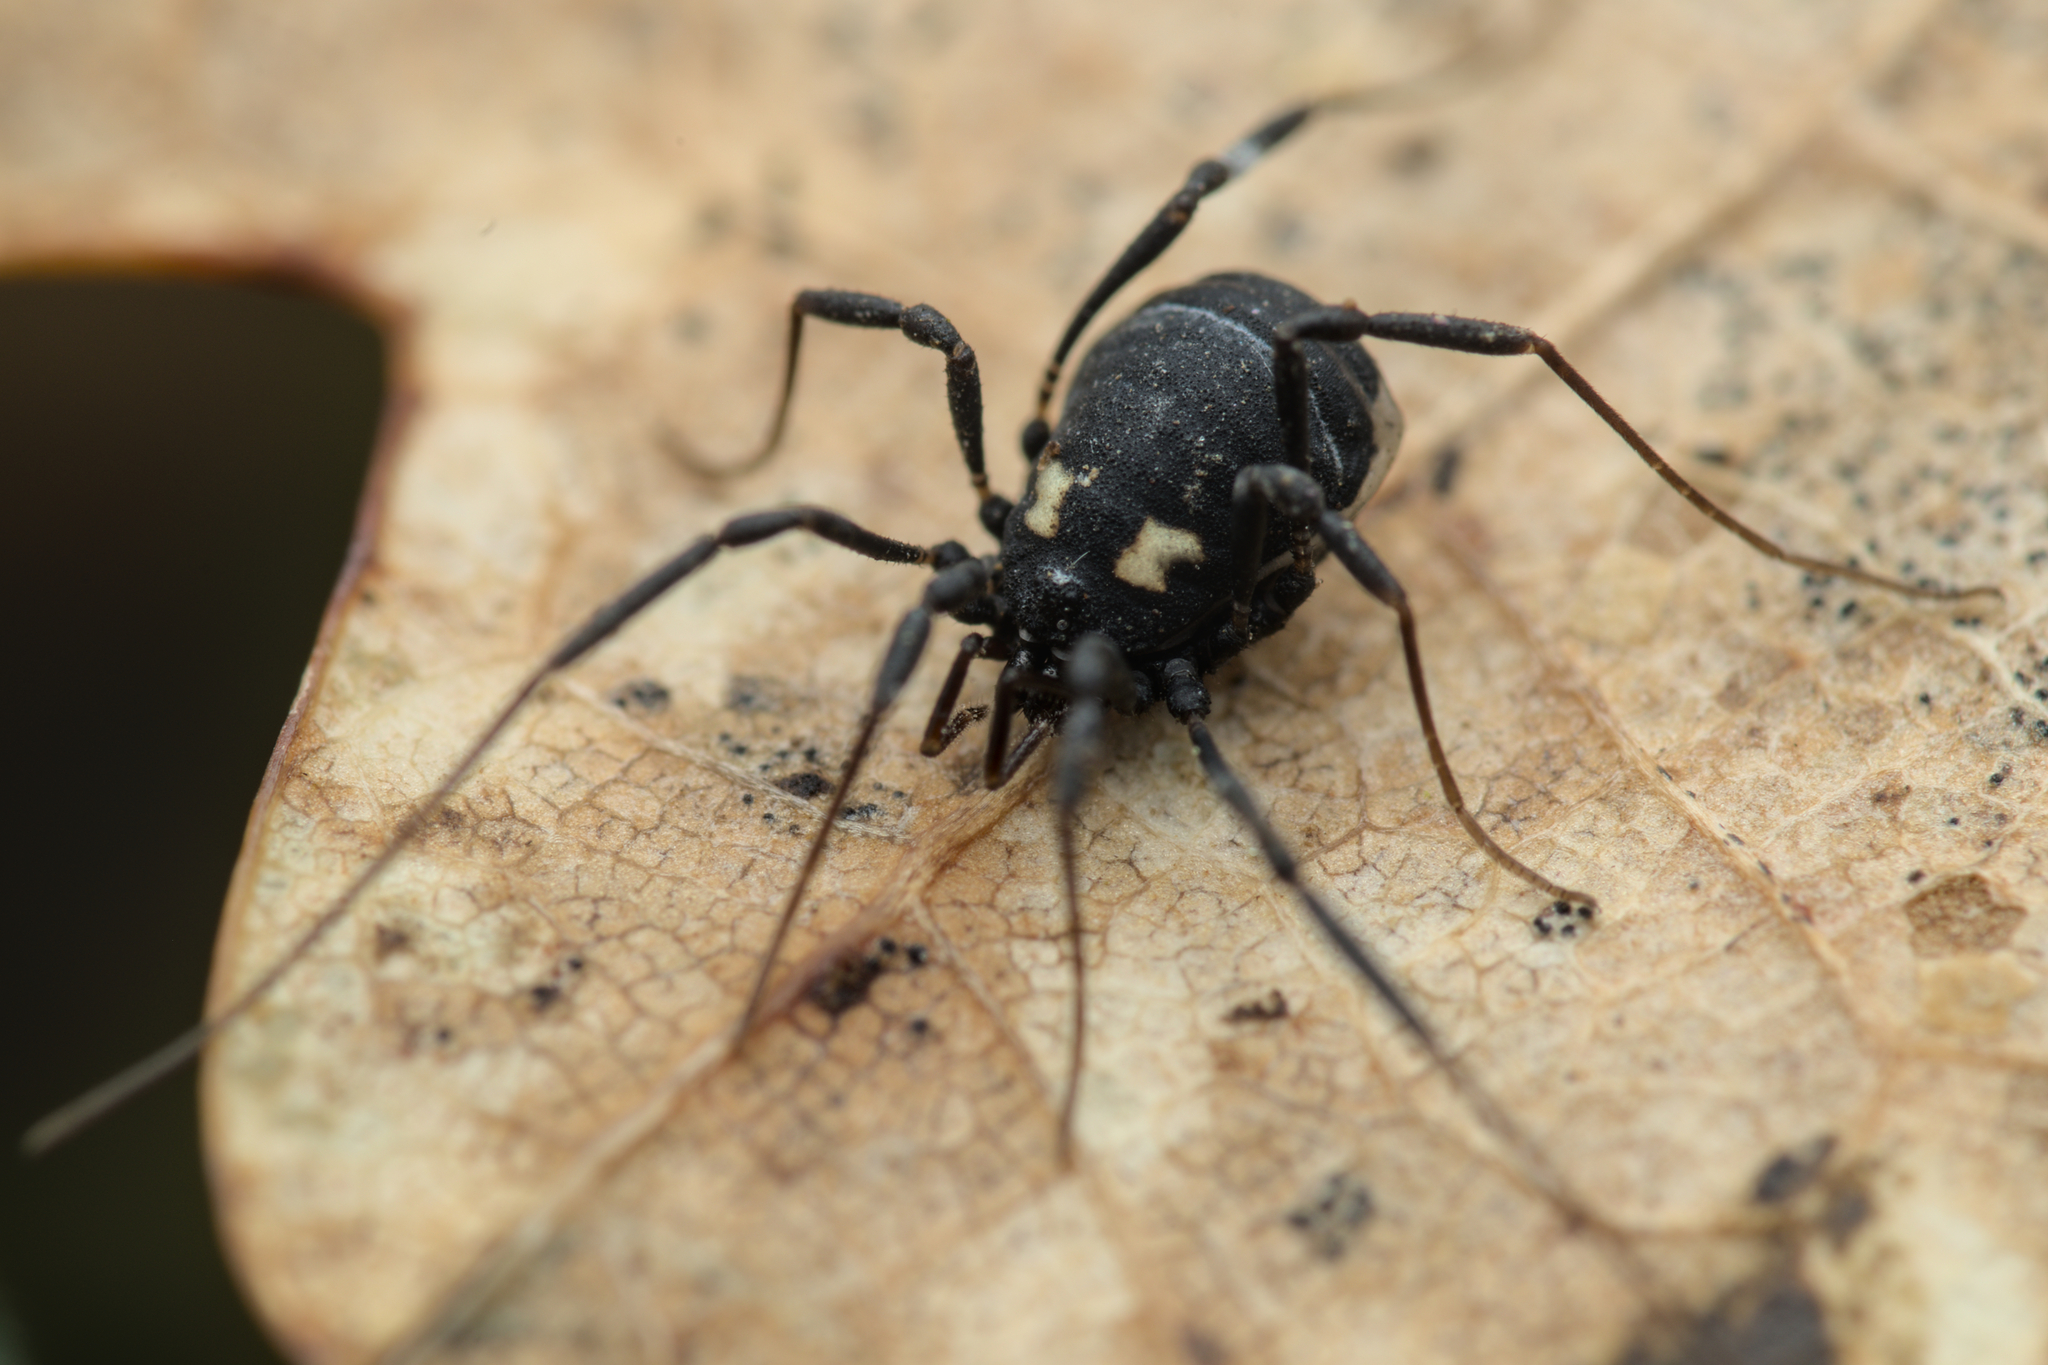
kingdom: Animalia
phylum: Arthropoda
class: Arachnida
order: Opiliones
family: Nemastomatidae
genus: Nemastoma
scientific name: Nemastoma bimaculatum
